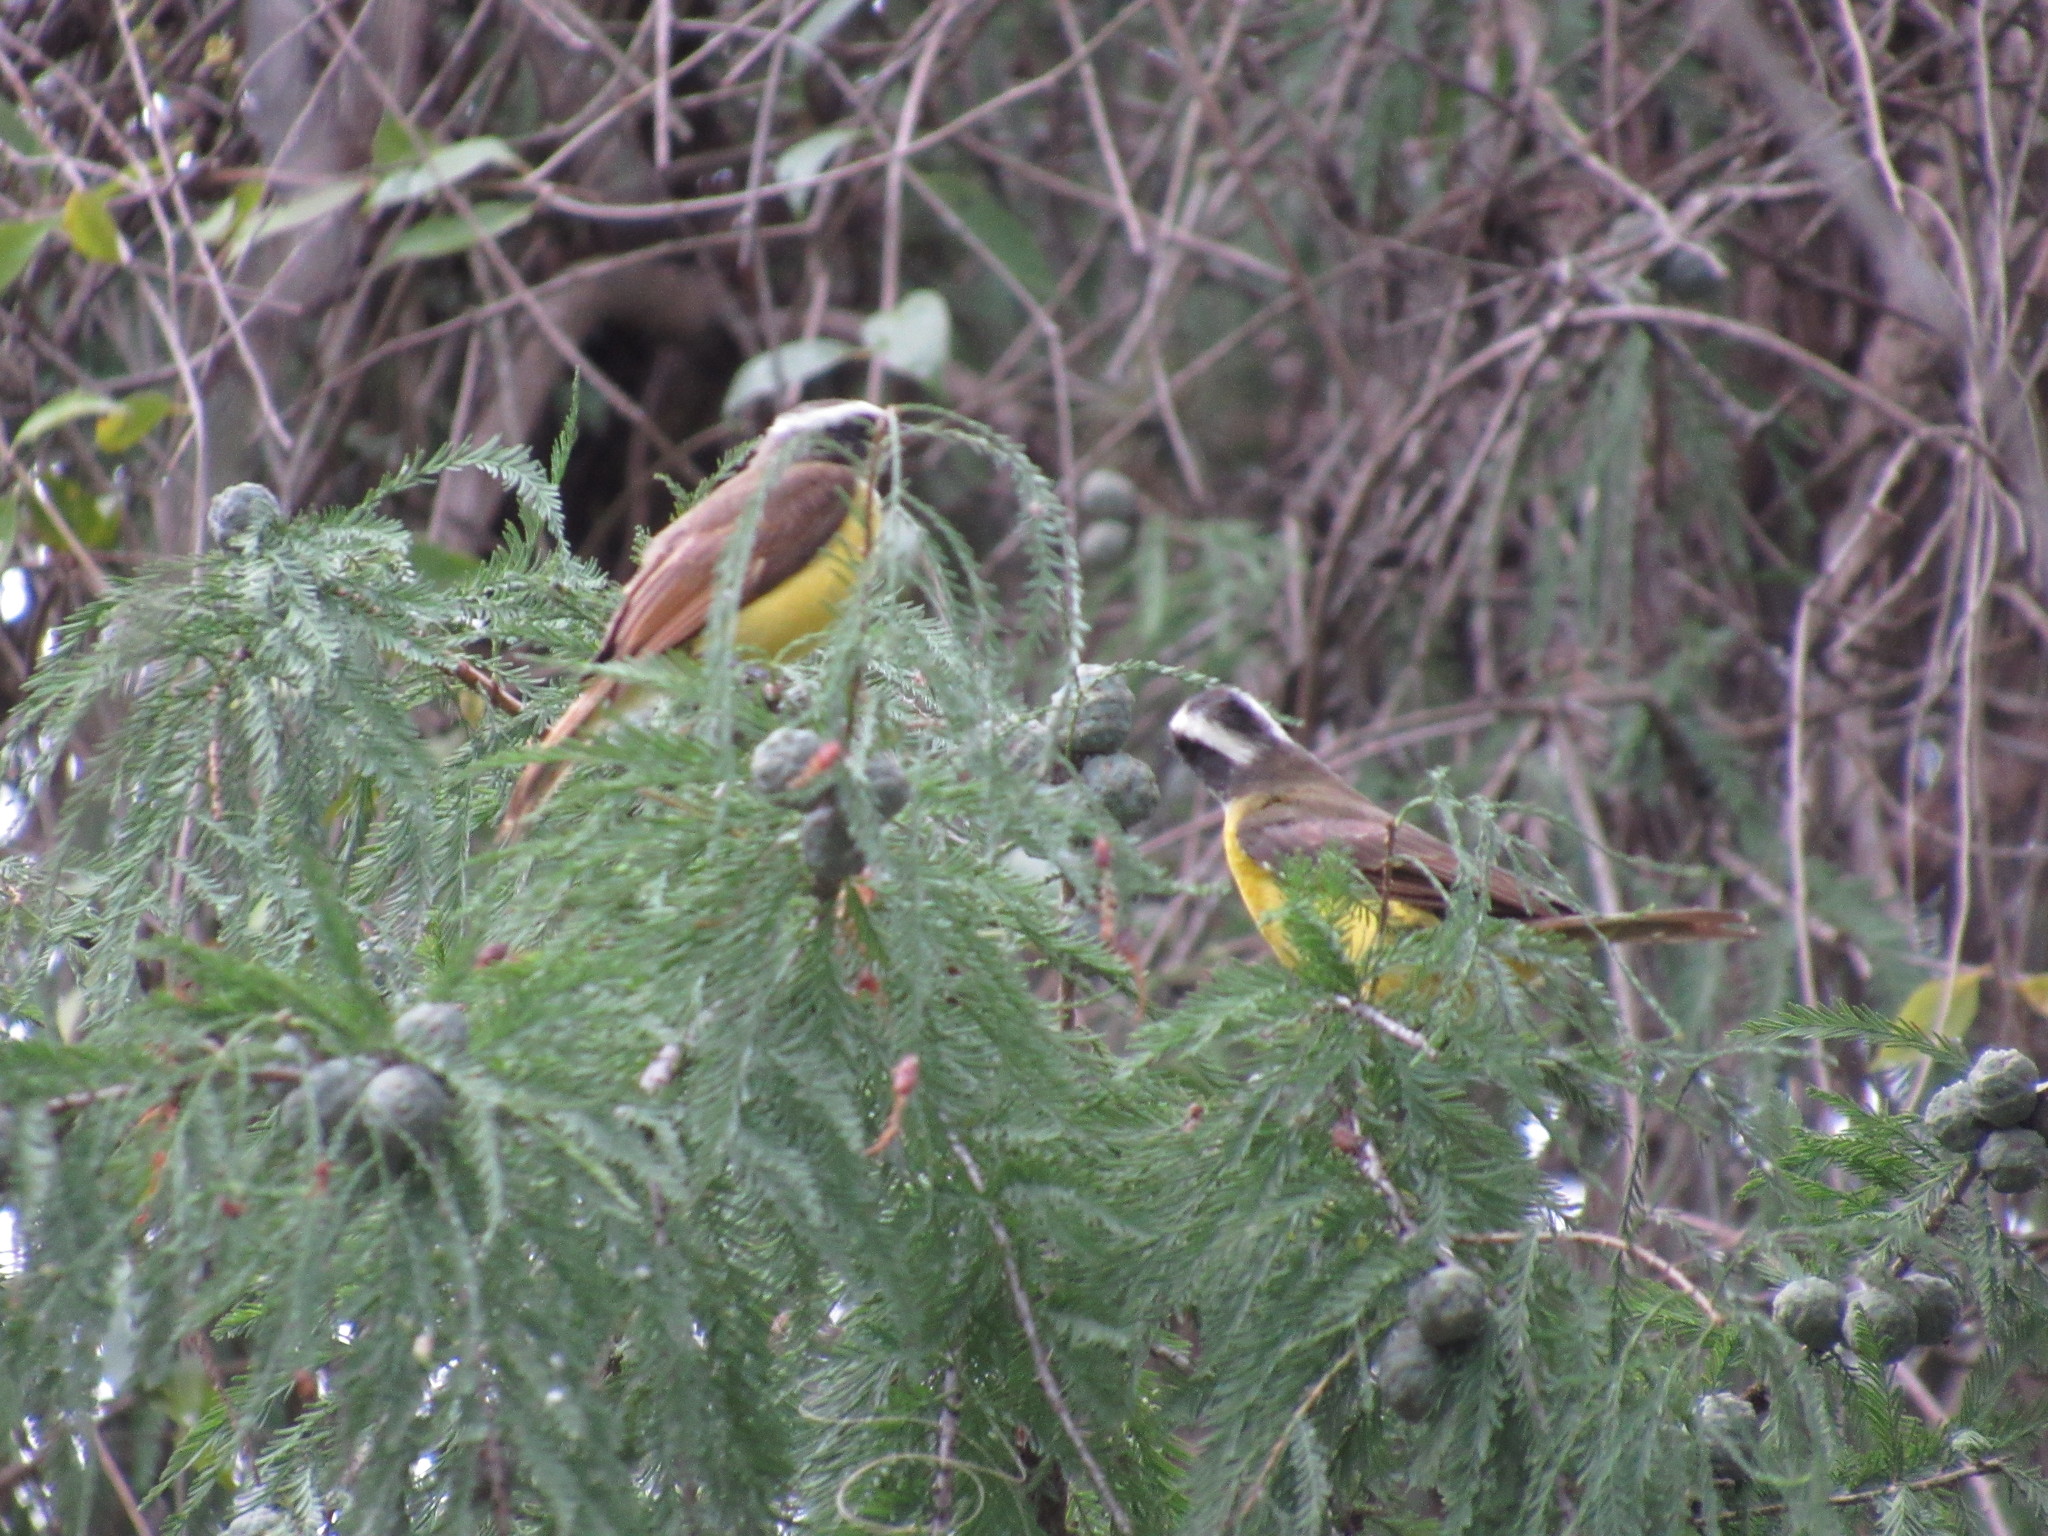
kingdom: Animalia
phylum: Chordata
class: Aves
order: Passeriformes
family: Tyrannidae
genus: Myiozetetes
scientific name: Myiozetetes similis
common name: Social flycatcher
